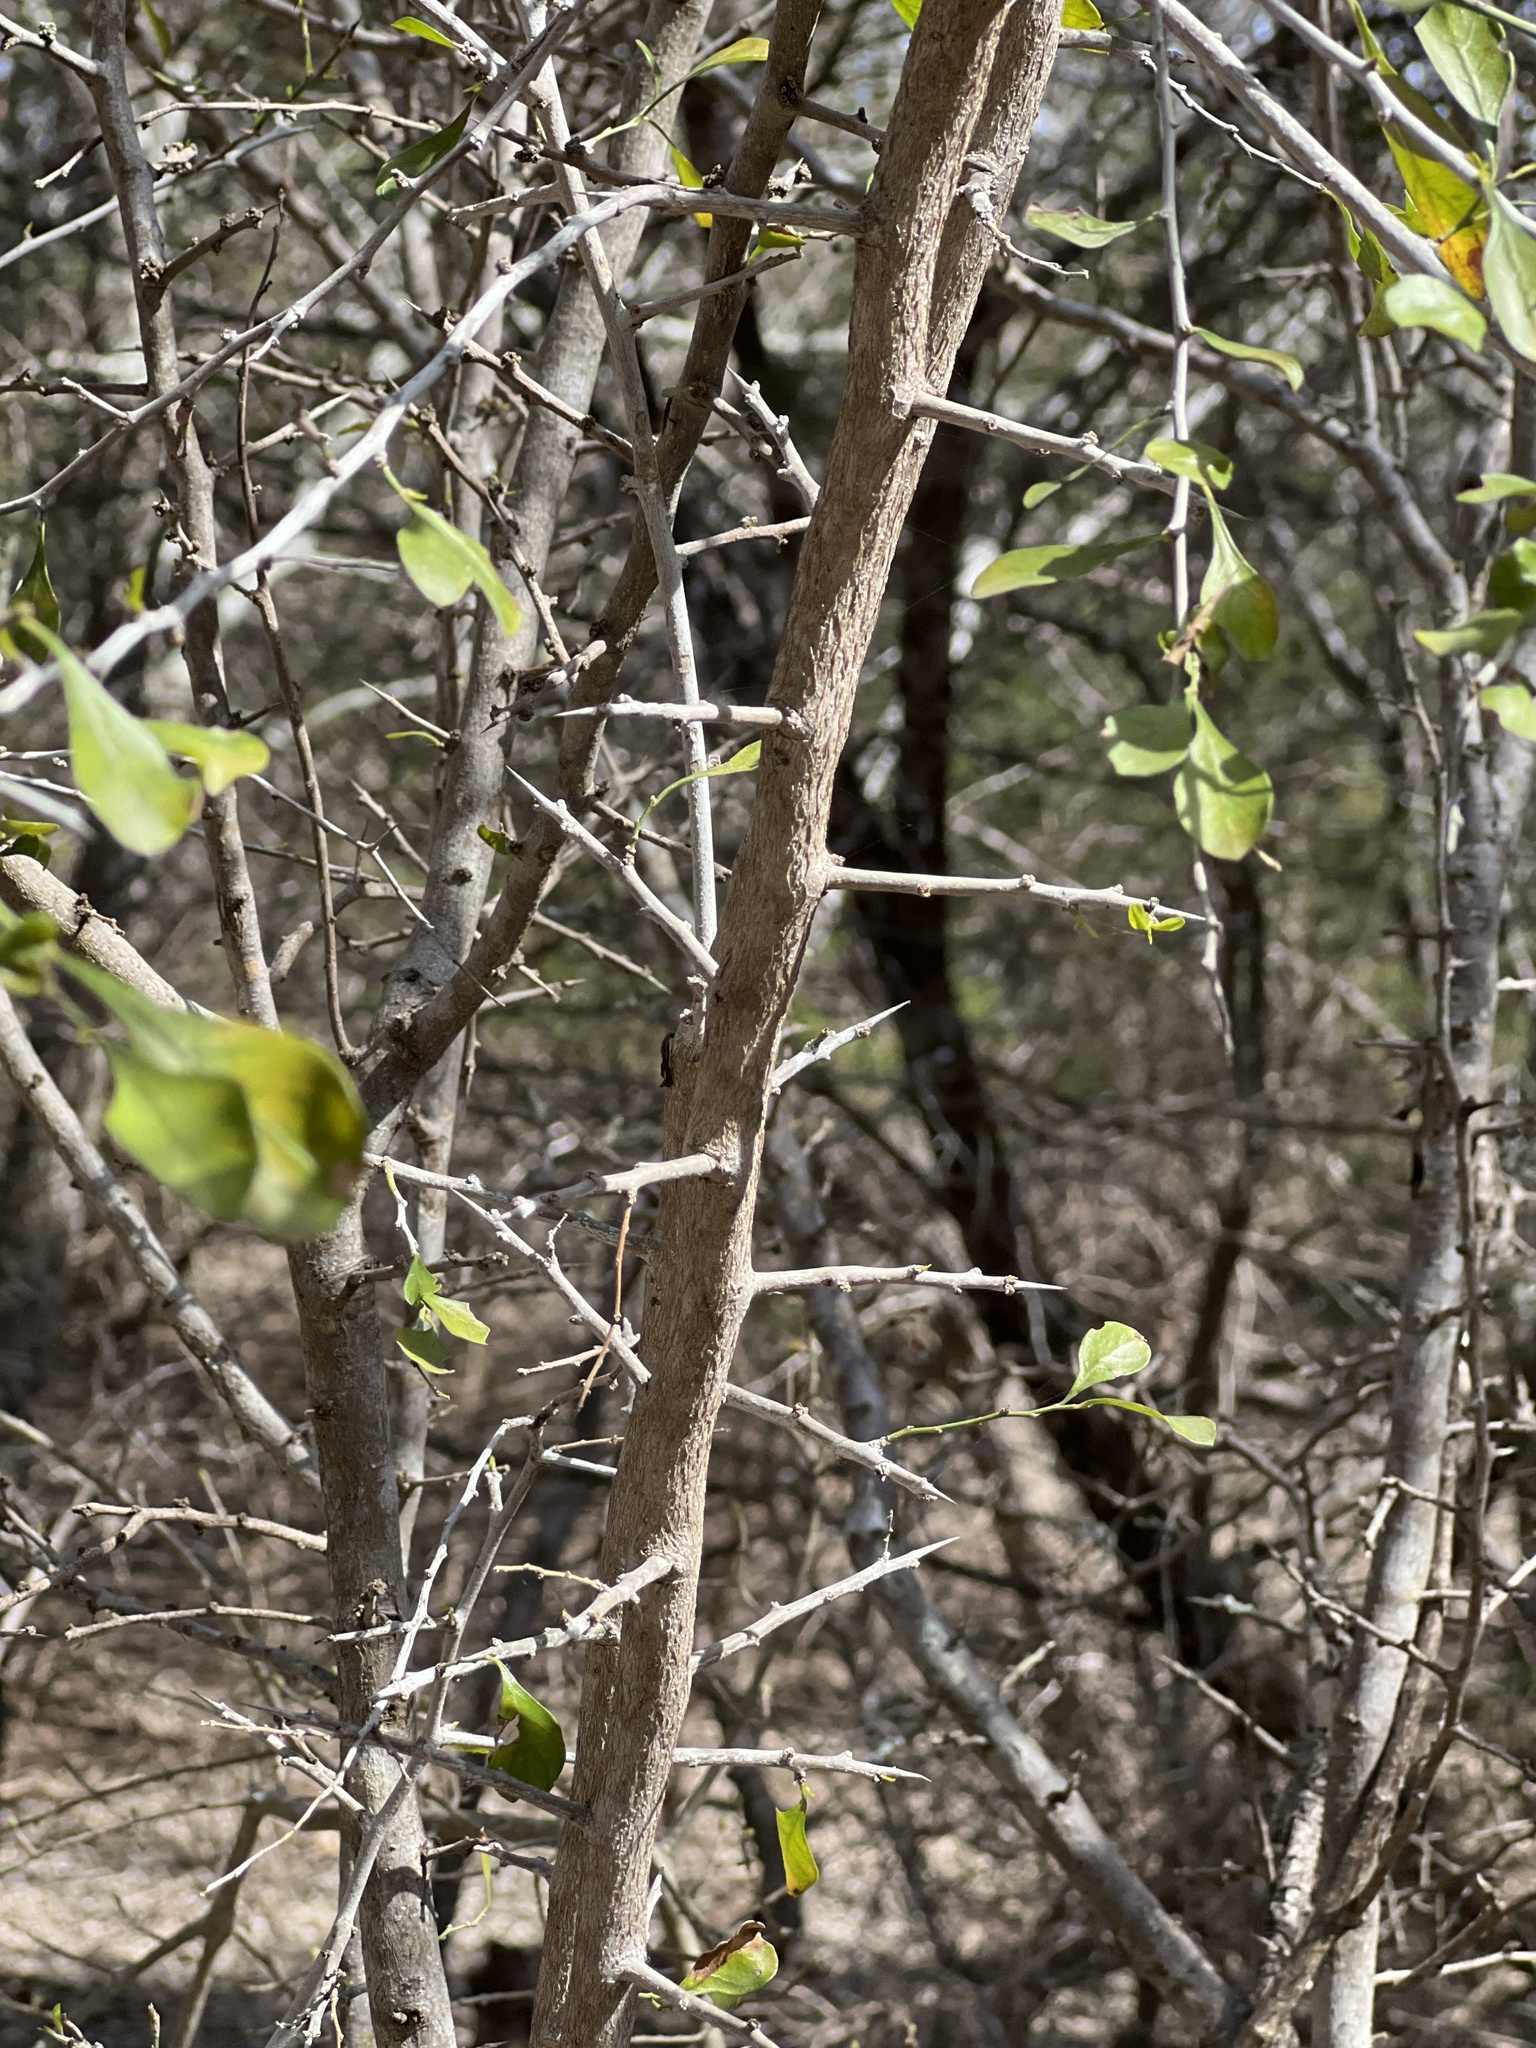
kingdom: Plantae
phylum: Tracheophyta
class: Magnoliopsida
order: Rosales
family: Rhamnaceae
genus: Condalia
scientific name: Condalia hookeri
